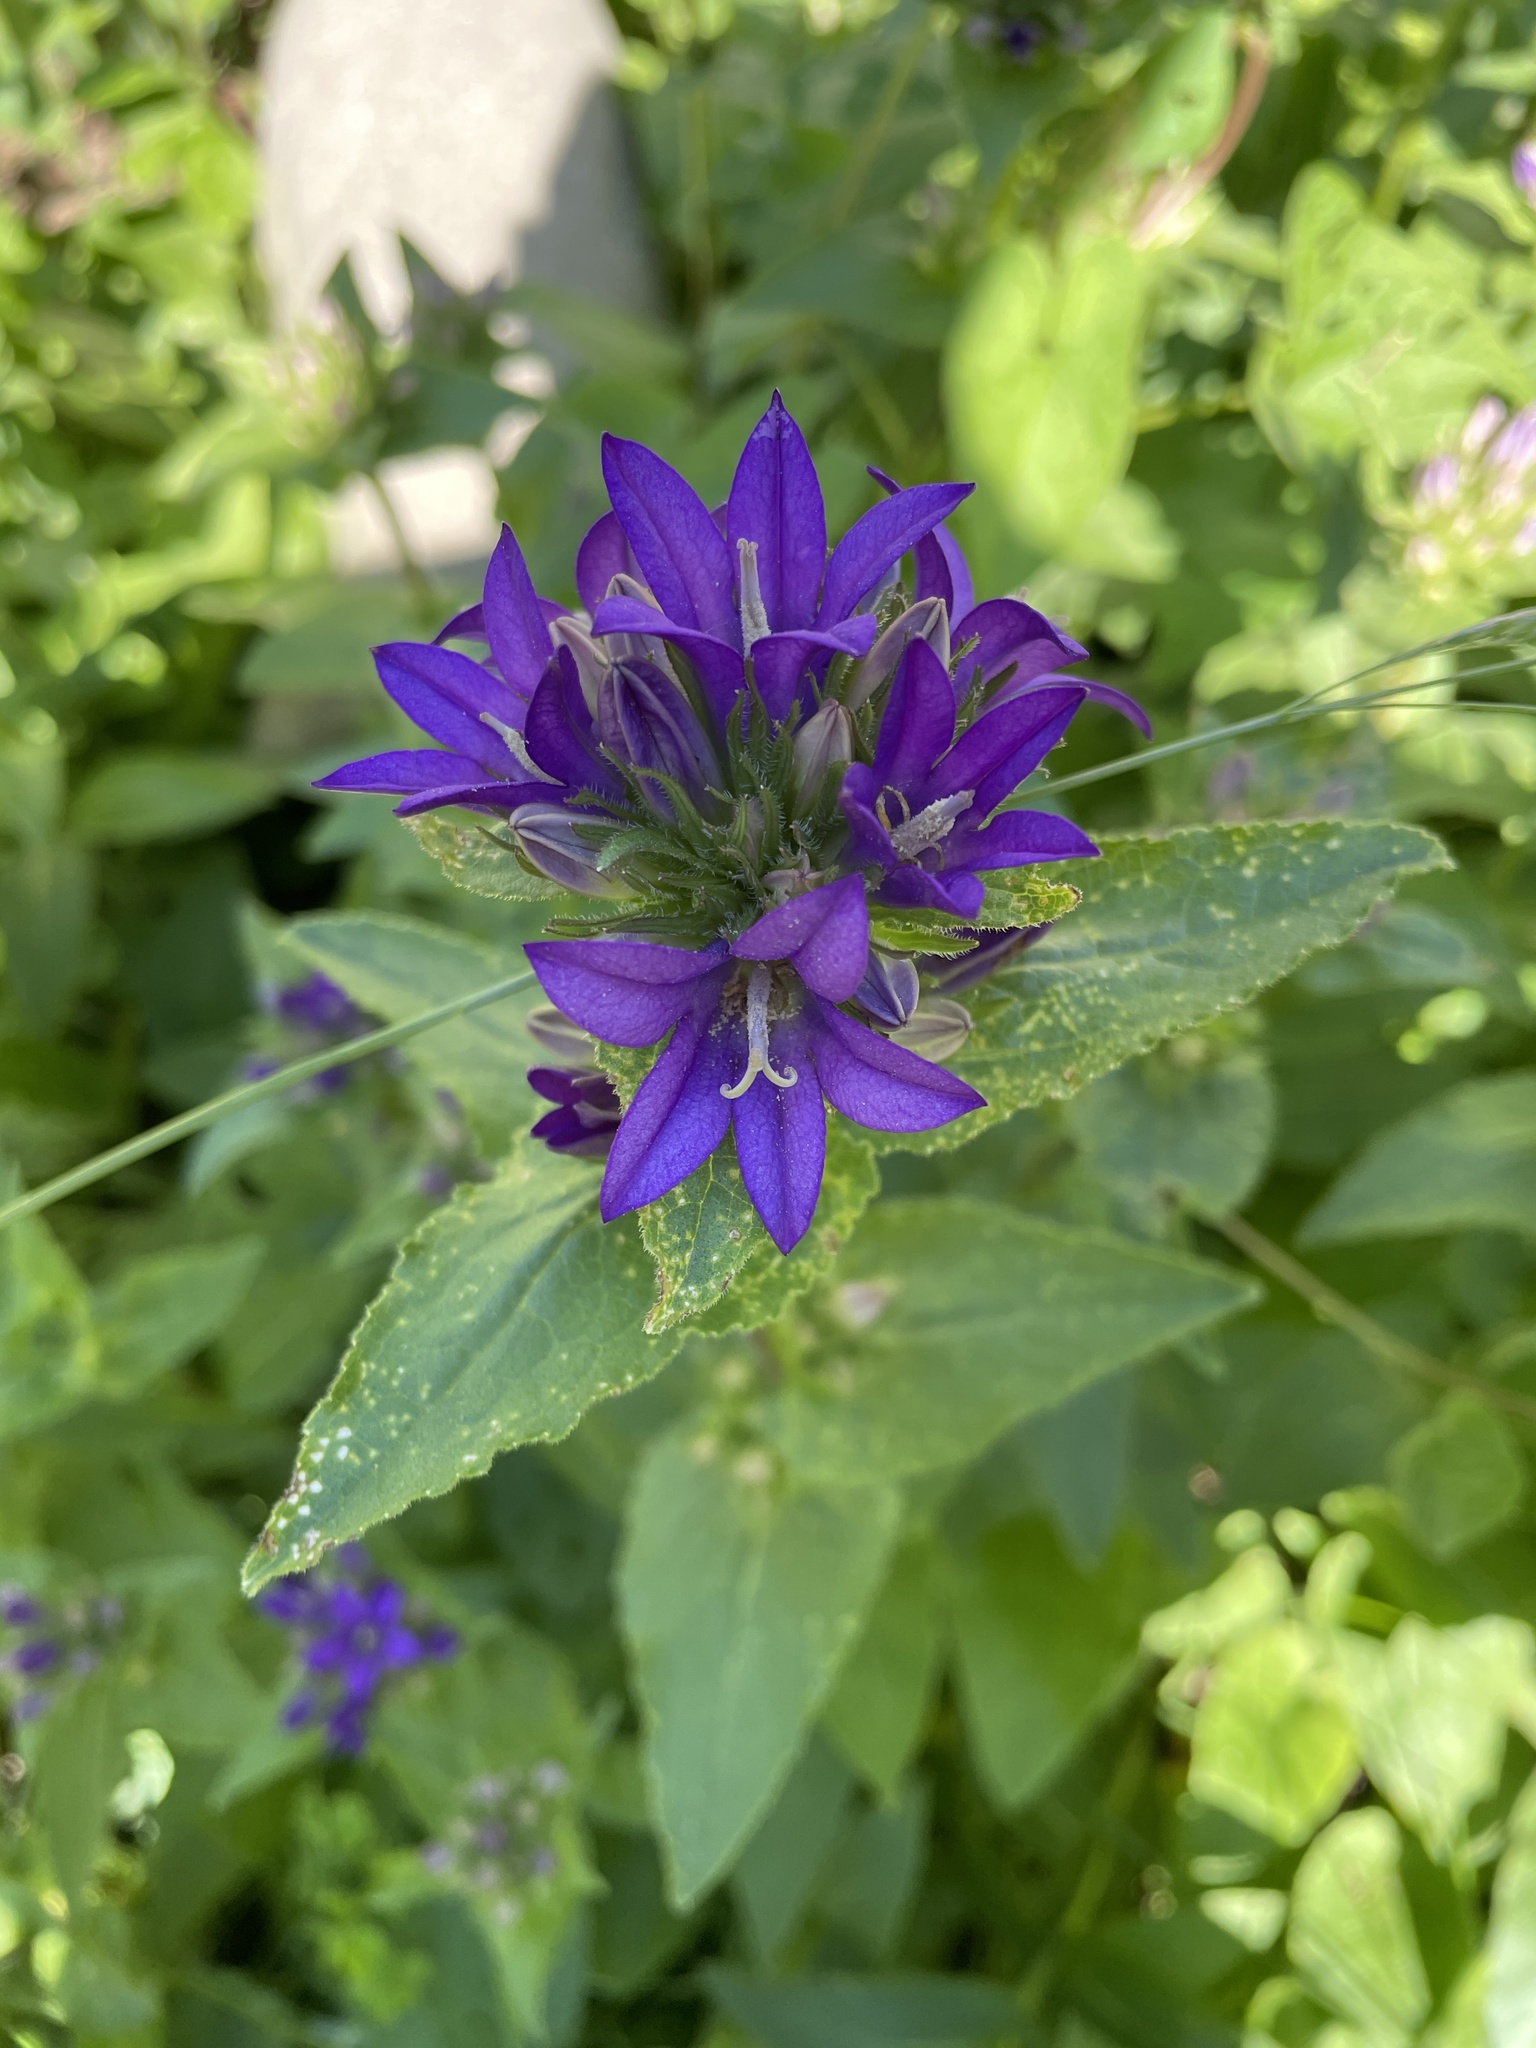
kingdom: Plantae
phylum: Tracheophyta
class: Magnoliopsida
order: Asterales
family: Campanulaceae
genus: Campanula
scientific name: Campanula glomerata
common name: Clustered bellflower
